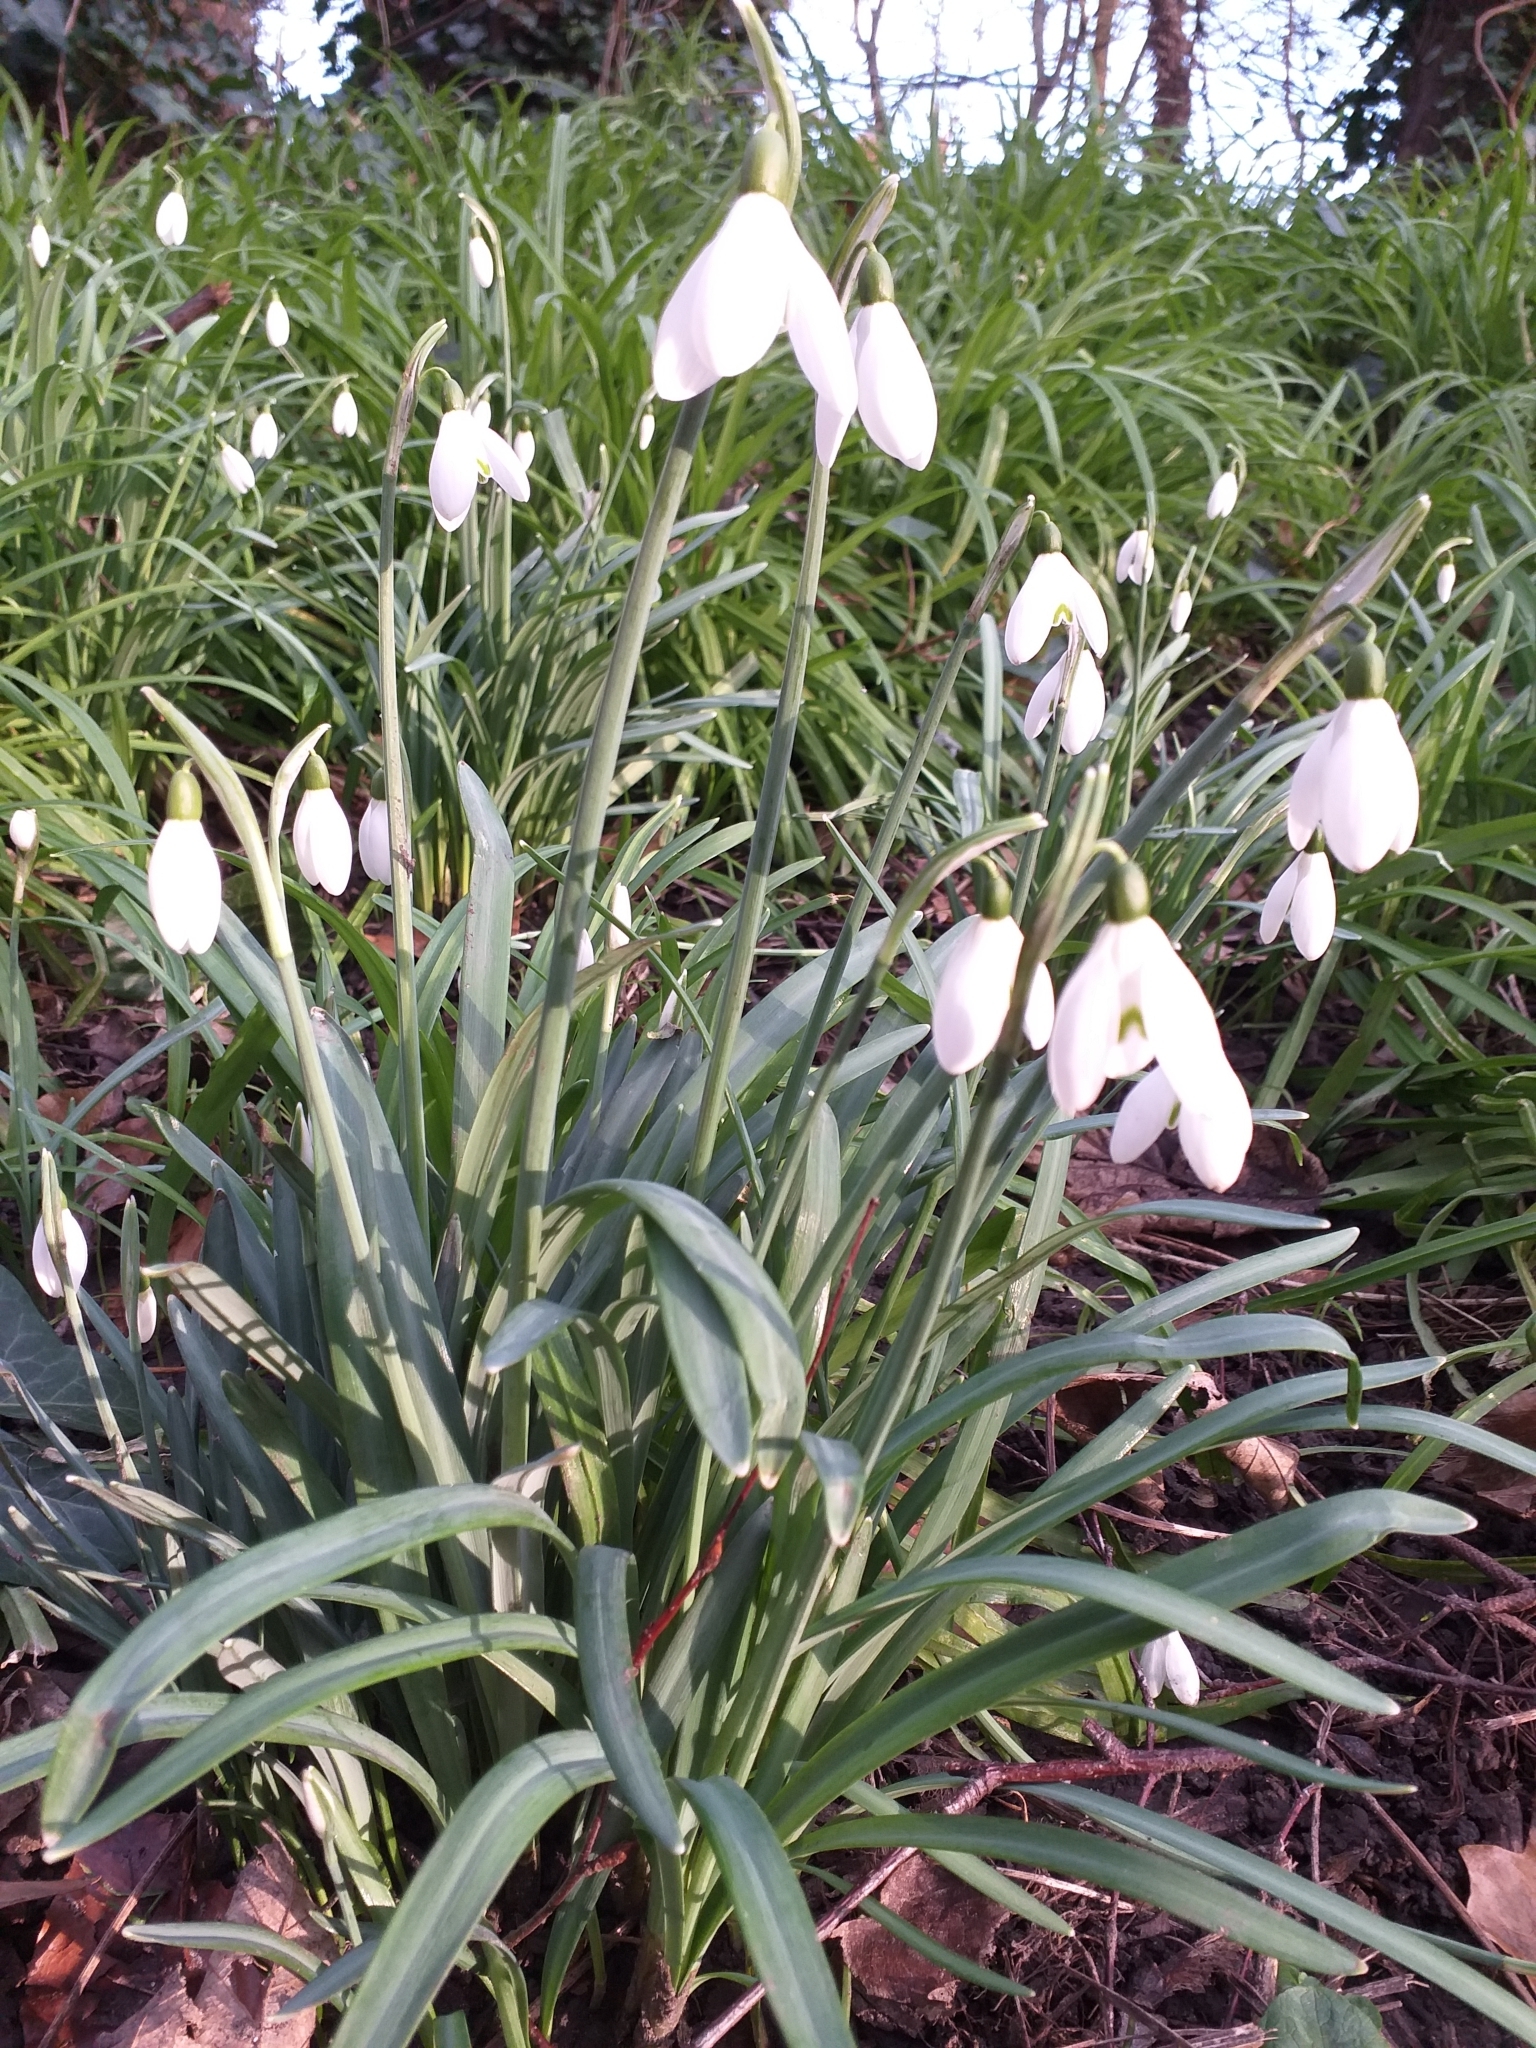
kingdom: Plantae
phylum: Tracheophyta
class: Liliopsida
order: Asparagales
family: Amaryllidaceae
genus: Galanthus
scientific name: Galanthus nivalis
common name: Snowdrop
